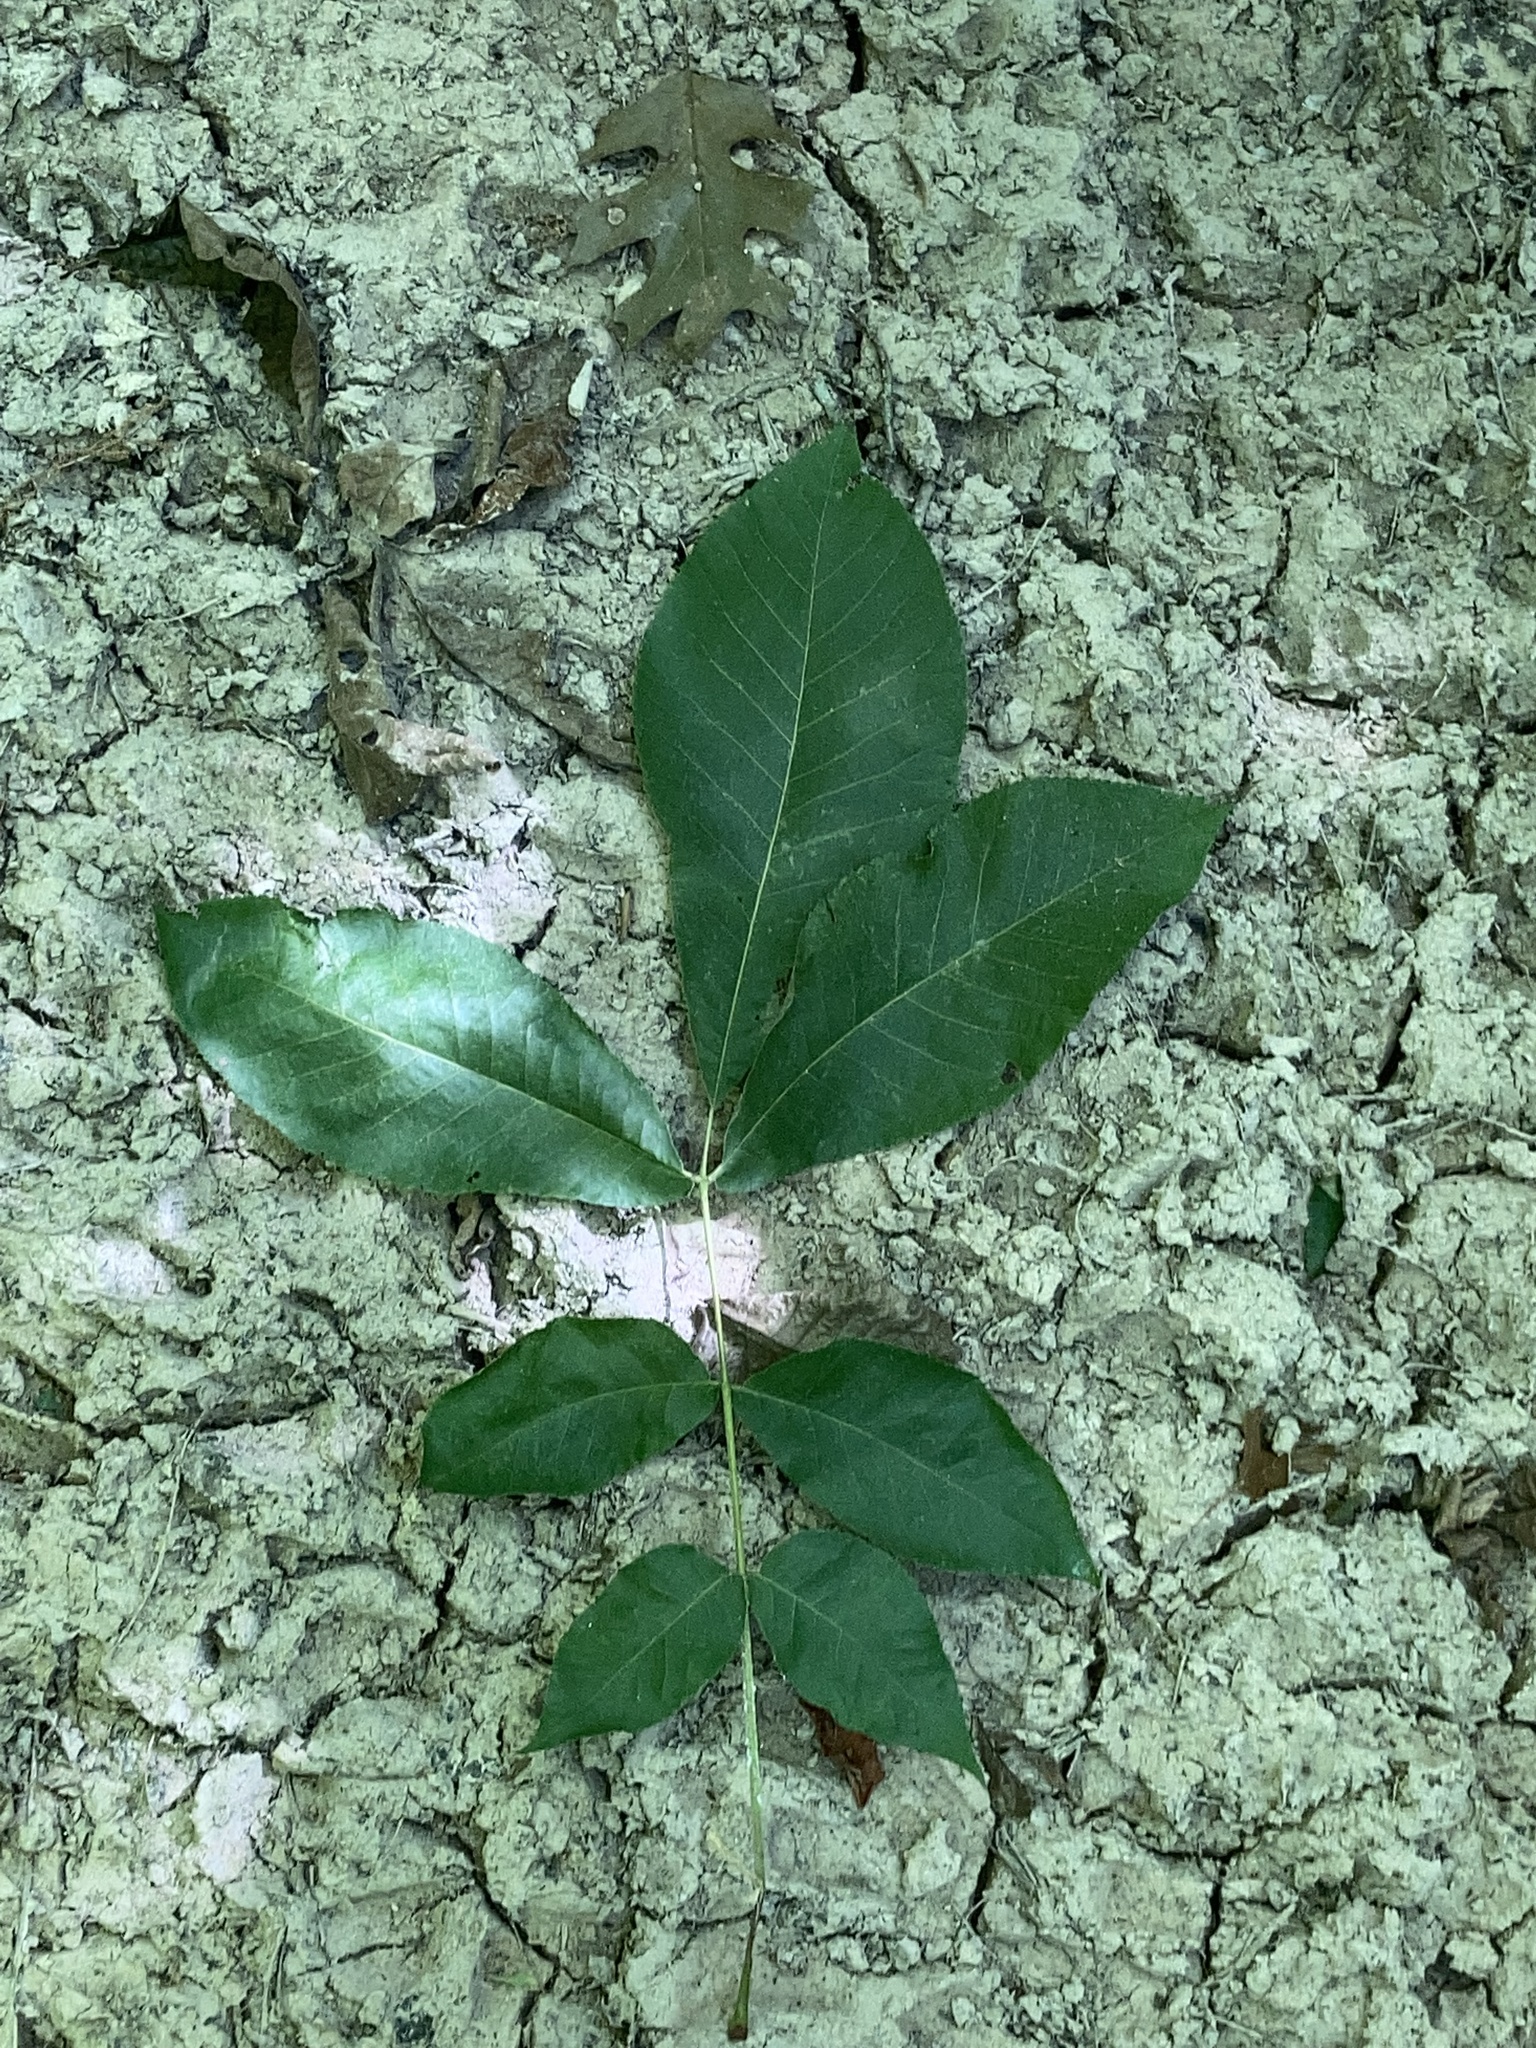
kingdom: Plantae
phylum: Tracheophyta
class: Magnoliopsida
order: Fagales
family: Juglandaceae
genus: Carya
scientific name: Carya texana
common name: Black hickory
